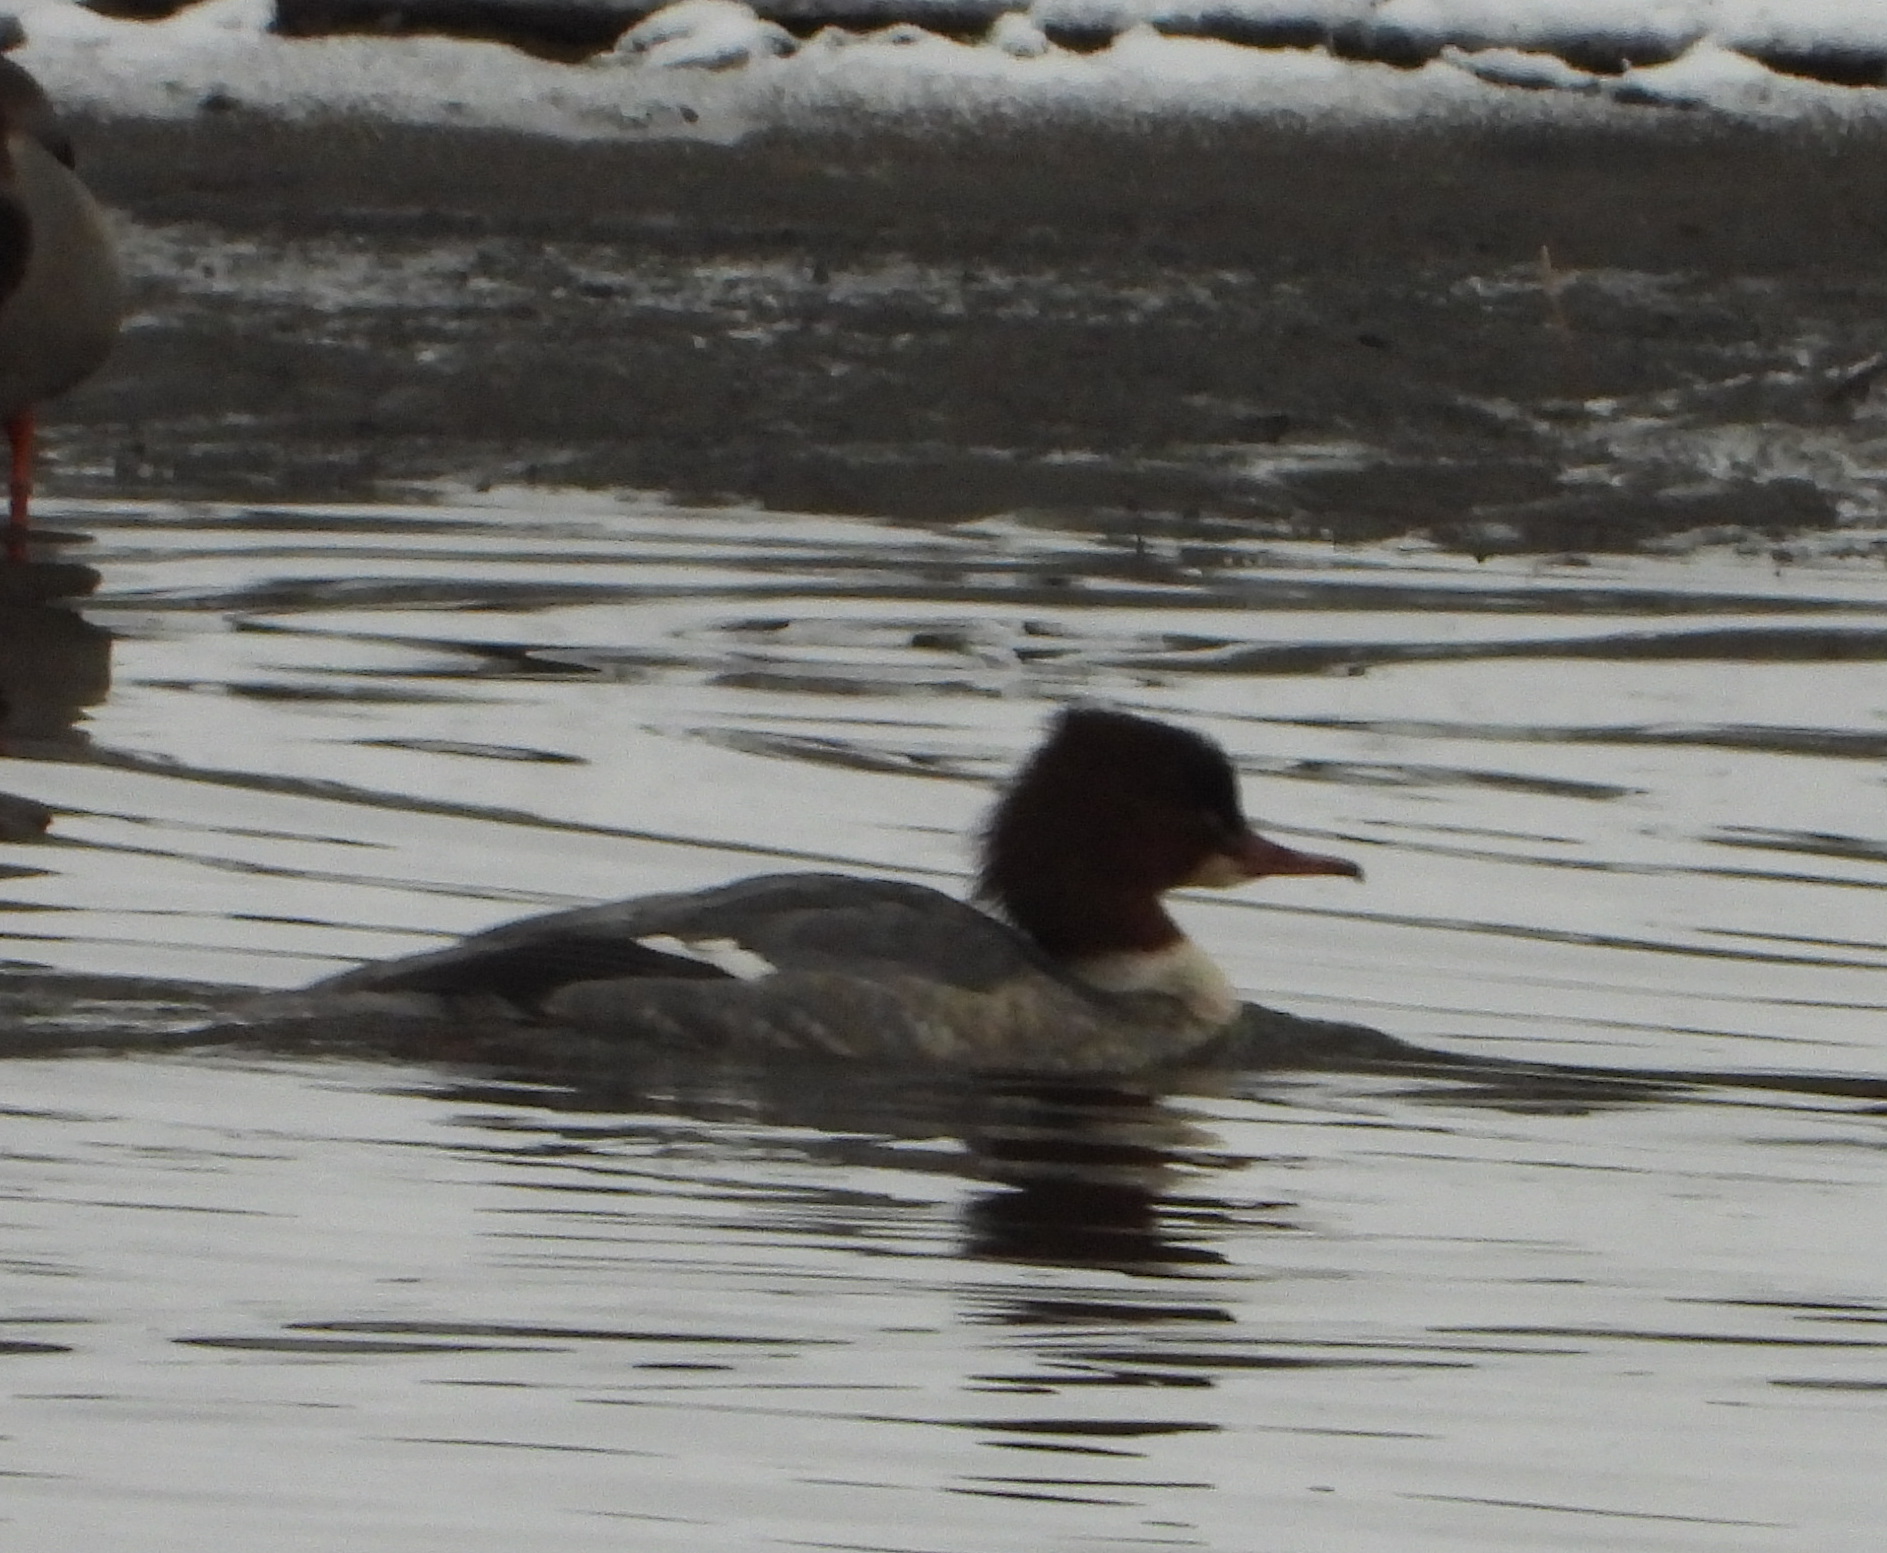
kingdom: Animalia
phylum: Chordata
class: Aves
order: Anseriformes
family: Anatidae
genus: Mergus
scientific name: Mergus merganser
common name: Common merganser
